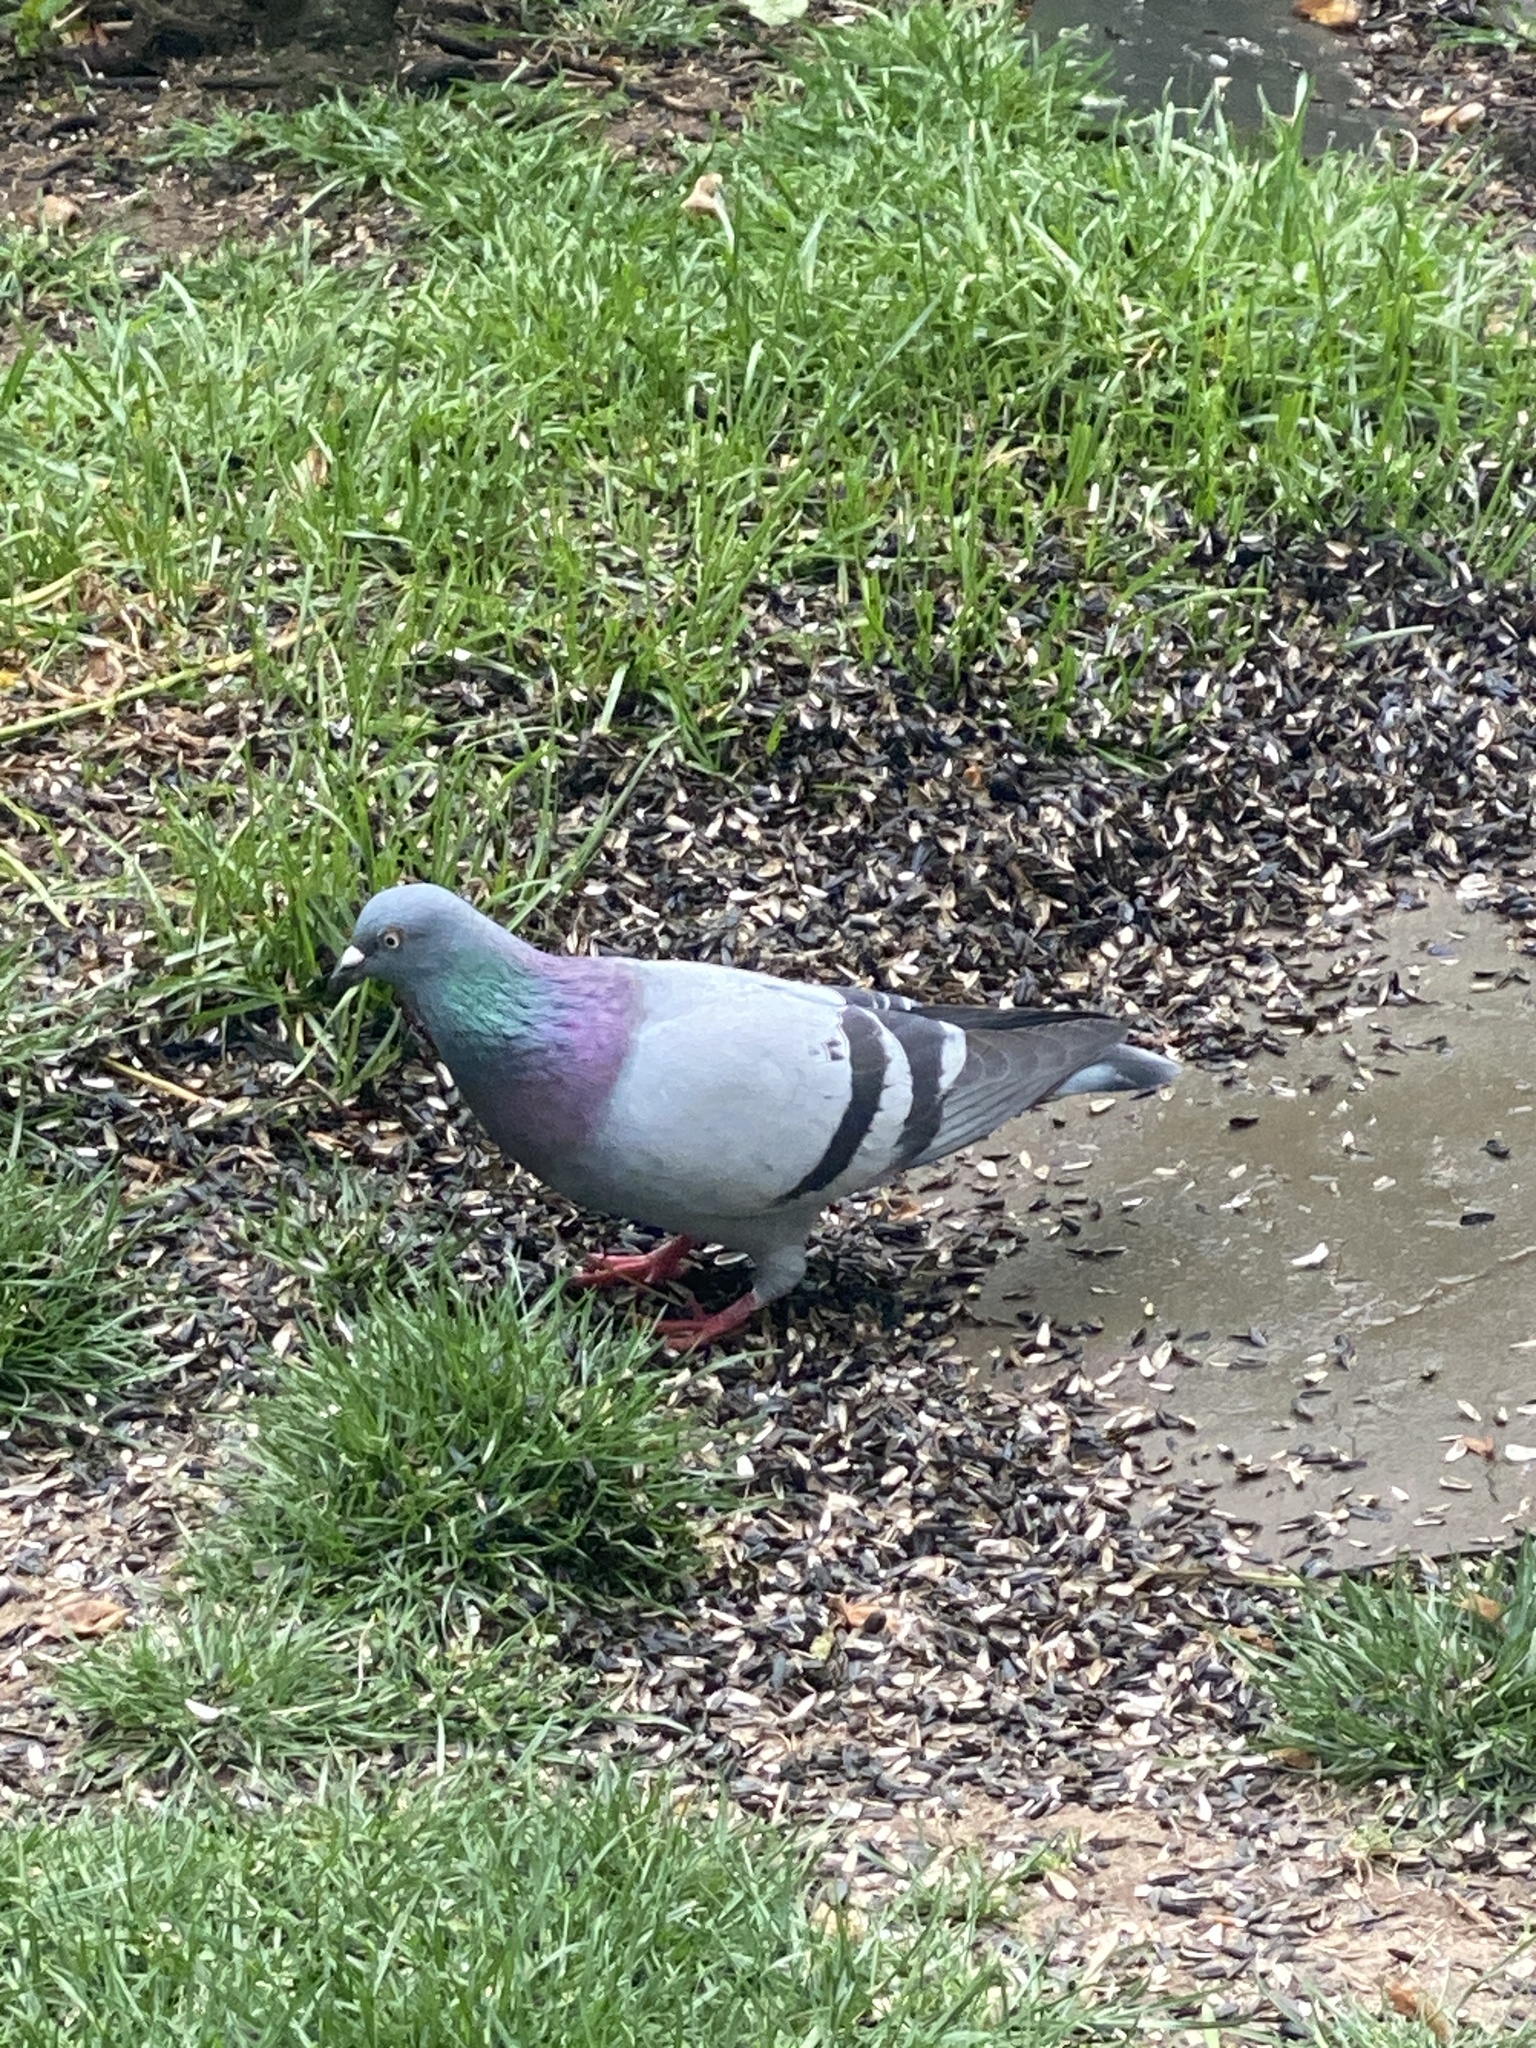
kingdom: Animalia
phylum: Chordata
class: Aves
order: Columbiformes
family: Columbidae
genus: Columba
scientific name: Columba livia
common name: Rock pigeon
